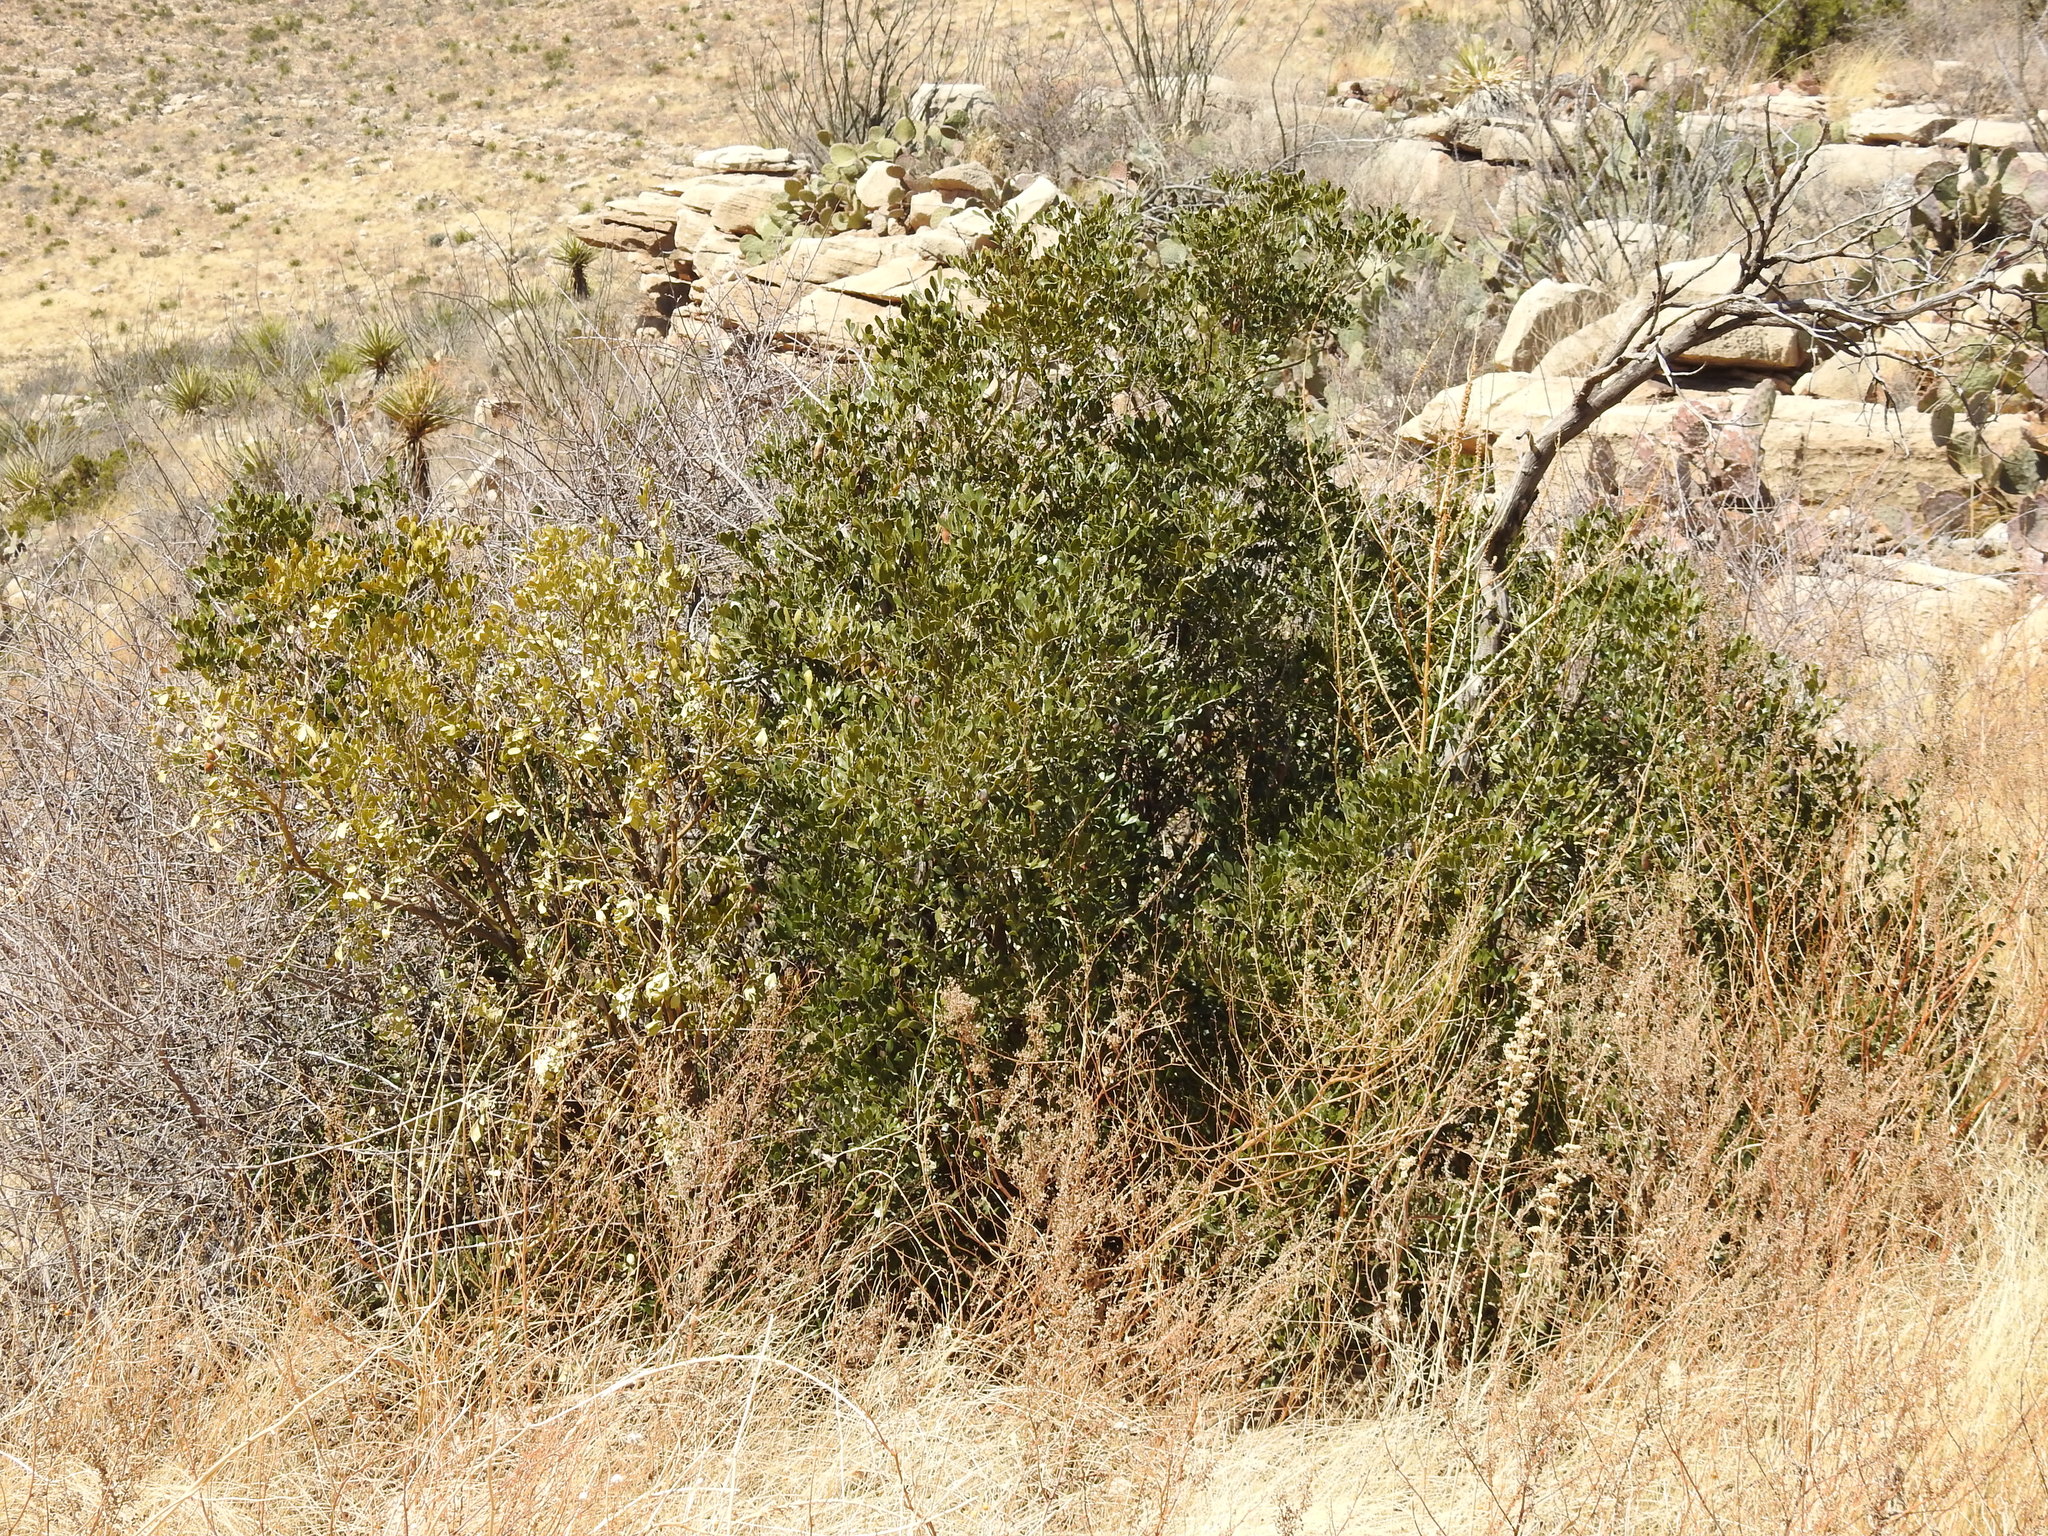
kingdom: Plantae
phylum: Tracheophyta
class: Magnoliopsida
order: Fabales
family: Fabaceae
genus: Dermatophyllum
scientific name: Dermatophyllum secundiflorum
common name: Texas-mountain-laurel
